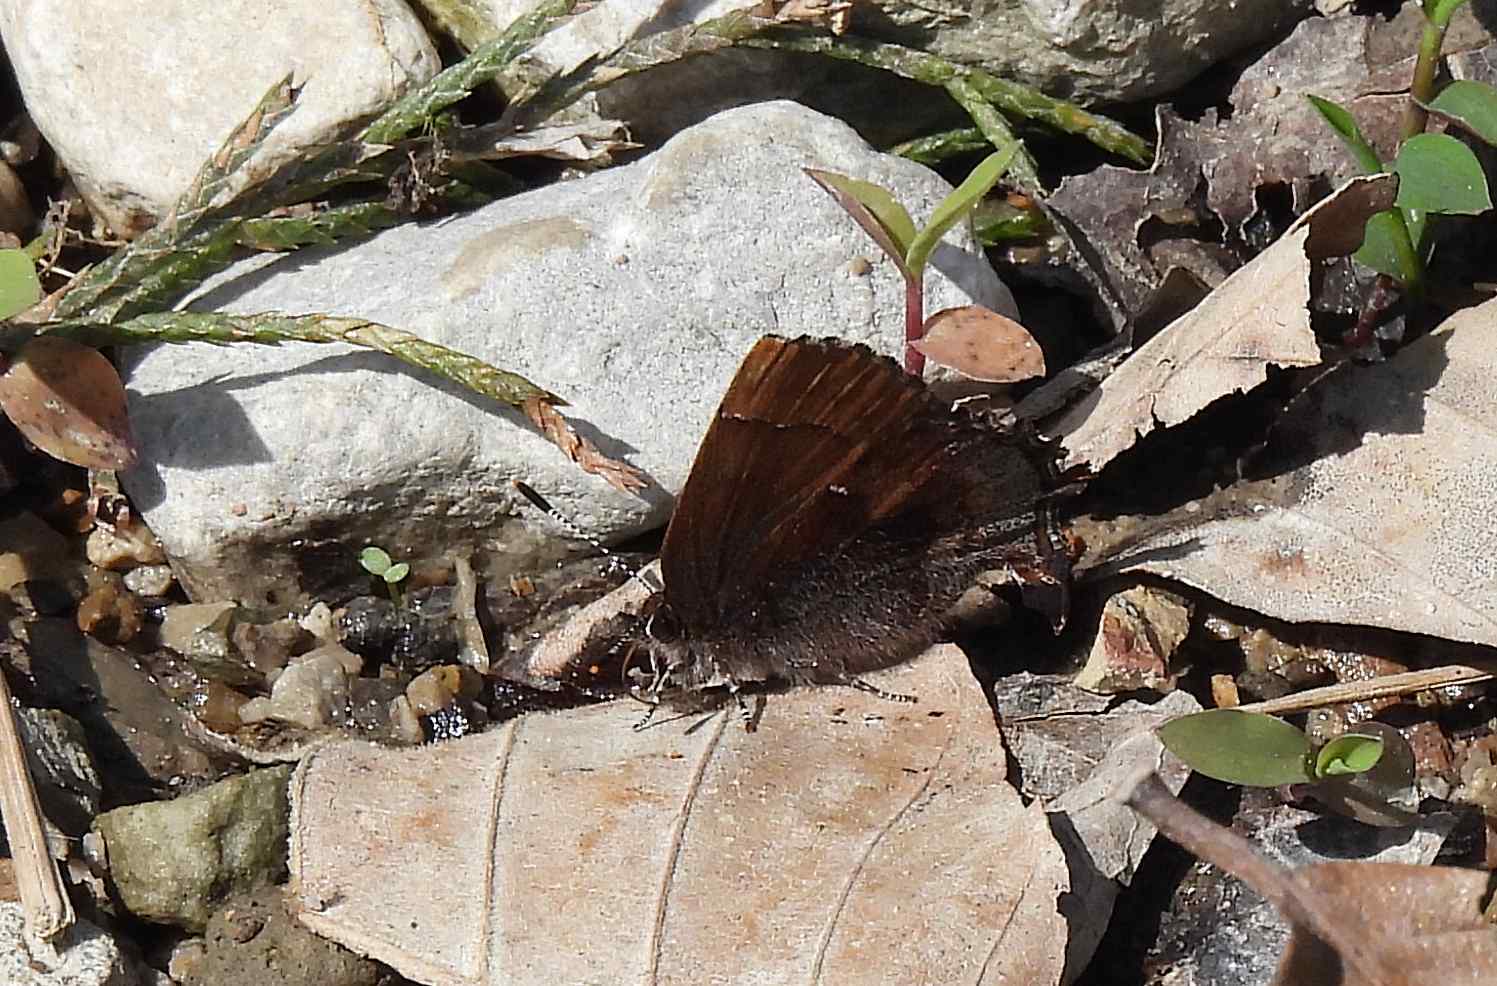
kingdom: Animalia
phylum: Arthropoda
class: Insecta
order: Lepidoptera
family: Lycaenidae
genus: Incisalia
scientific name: Incisalia henrici
